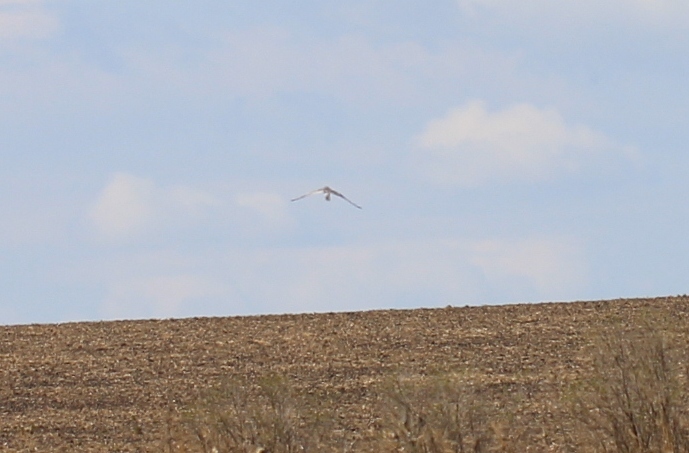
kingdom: Animalia
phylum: Chordata
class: Aves
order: Accipitriformes
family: Accipitridae
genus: Circus
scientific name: Circus pygargus
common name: Montagu's harrier
